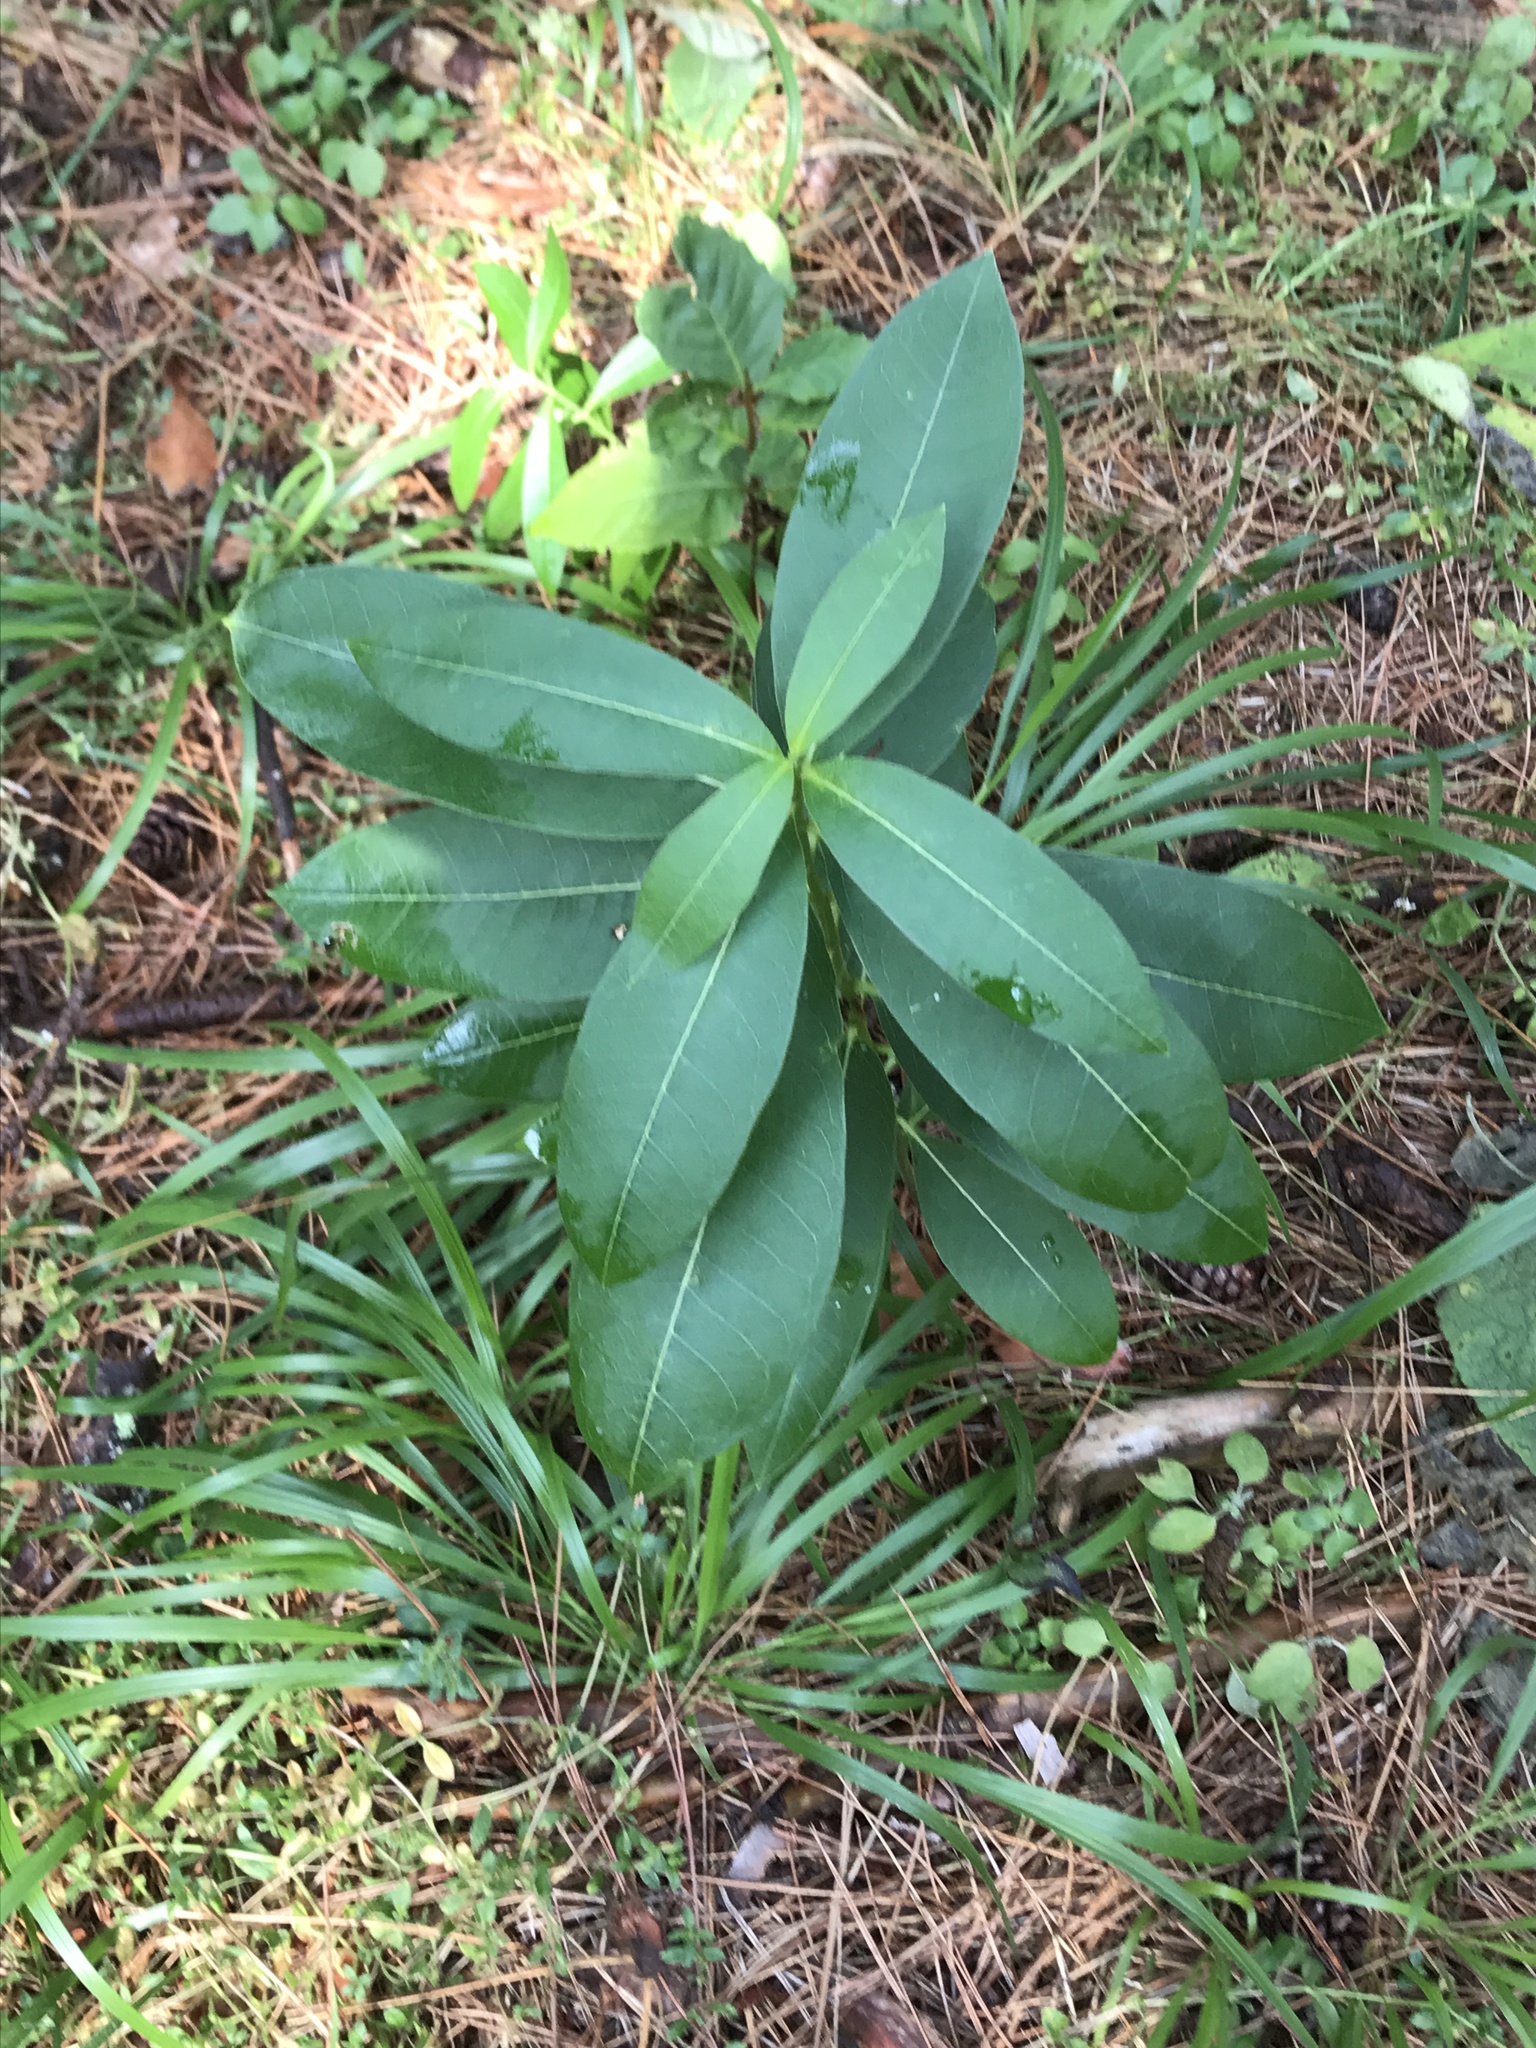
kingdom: Plantae
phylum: Tracheophyta
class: Magnoliopsida
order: Gentianales
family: Apocynaceae
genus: Asclepias
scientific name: Asclepias syriaca
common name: Common milkweed
